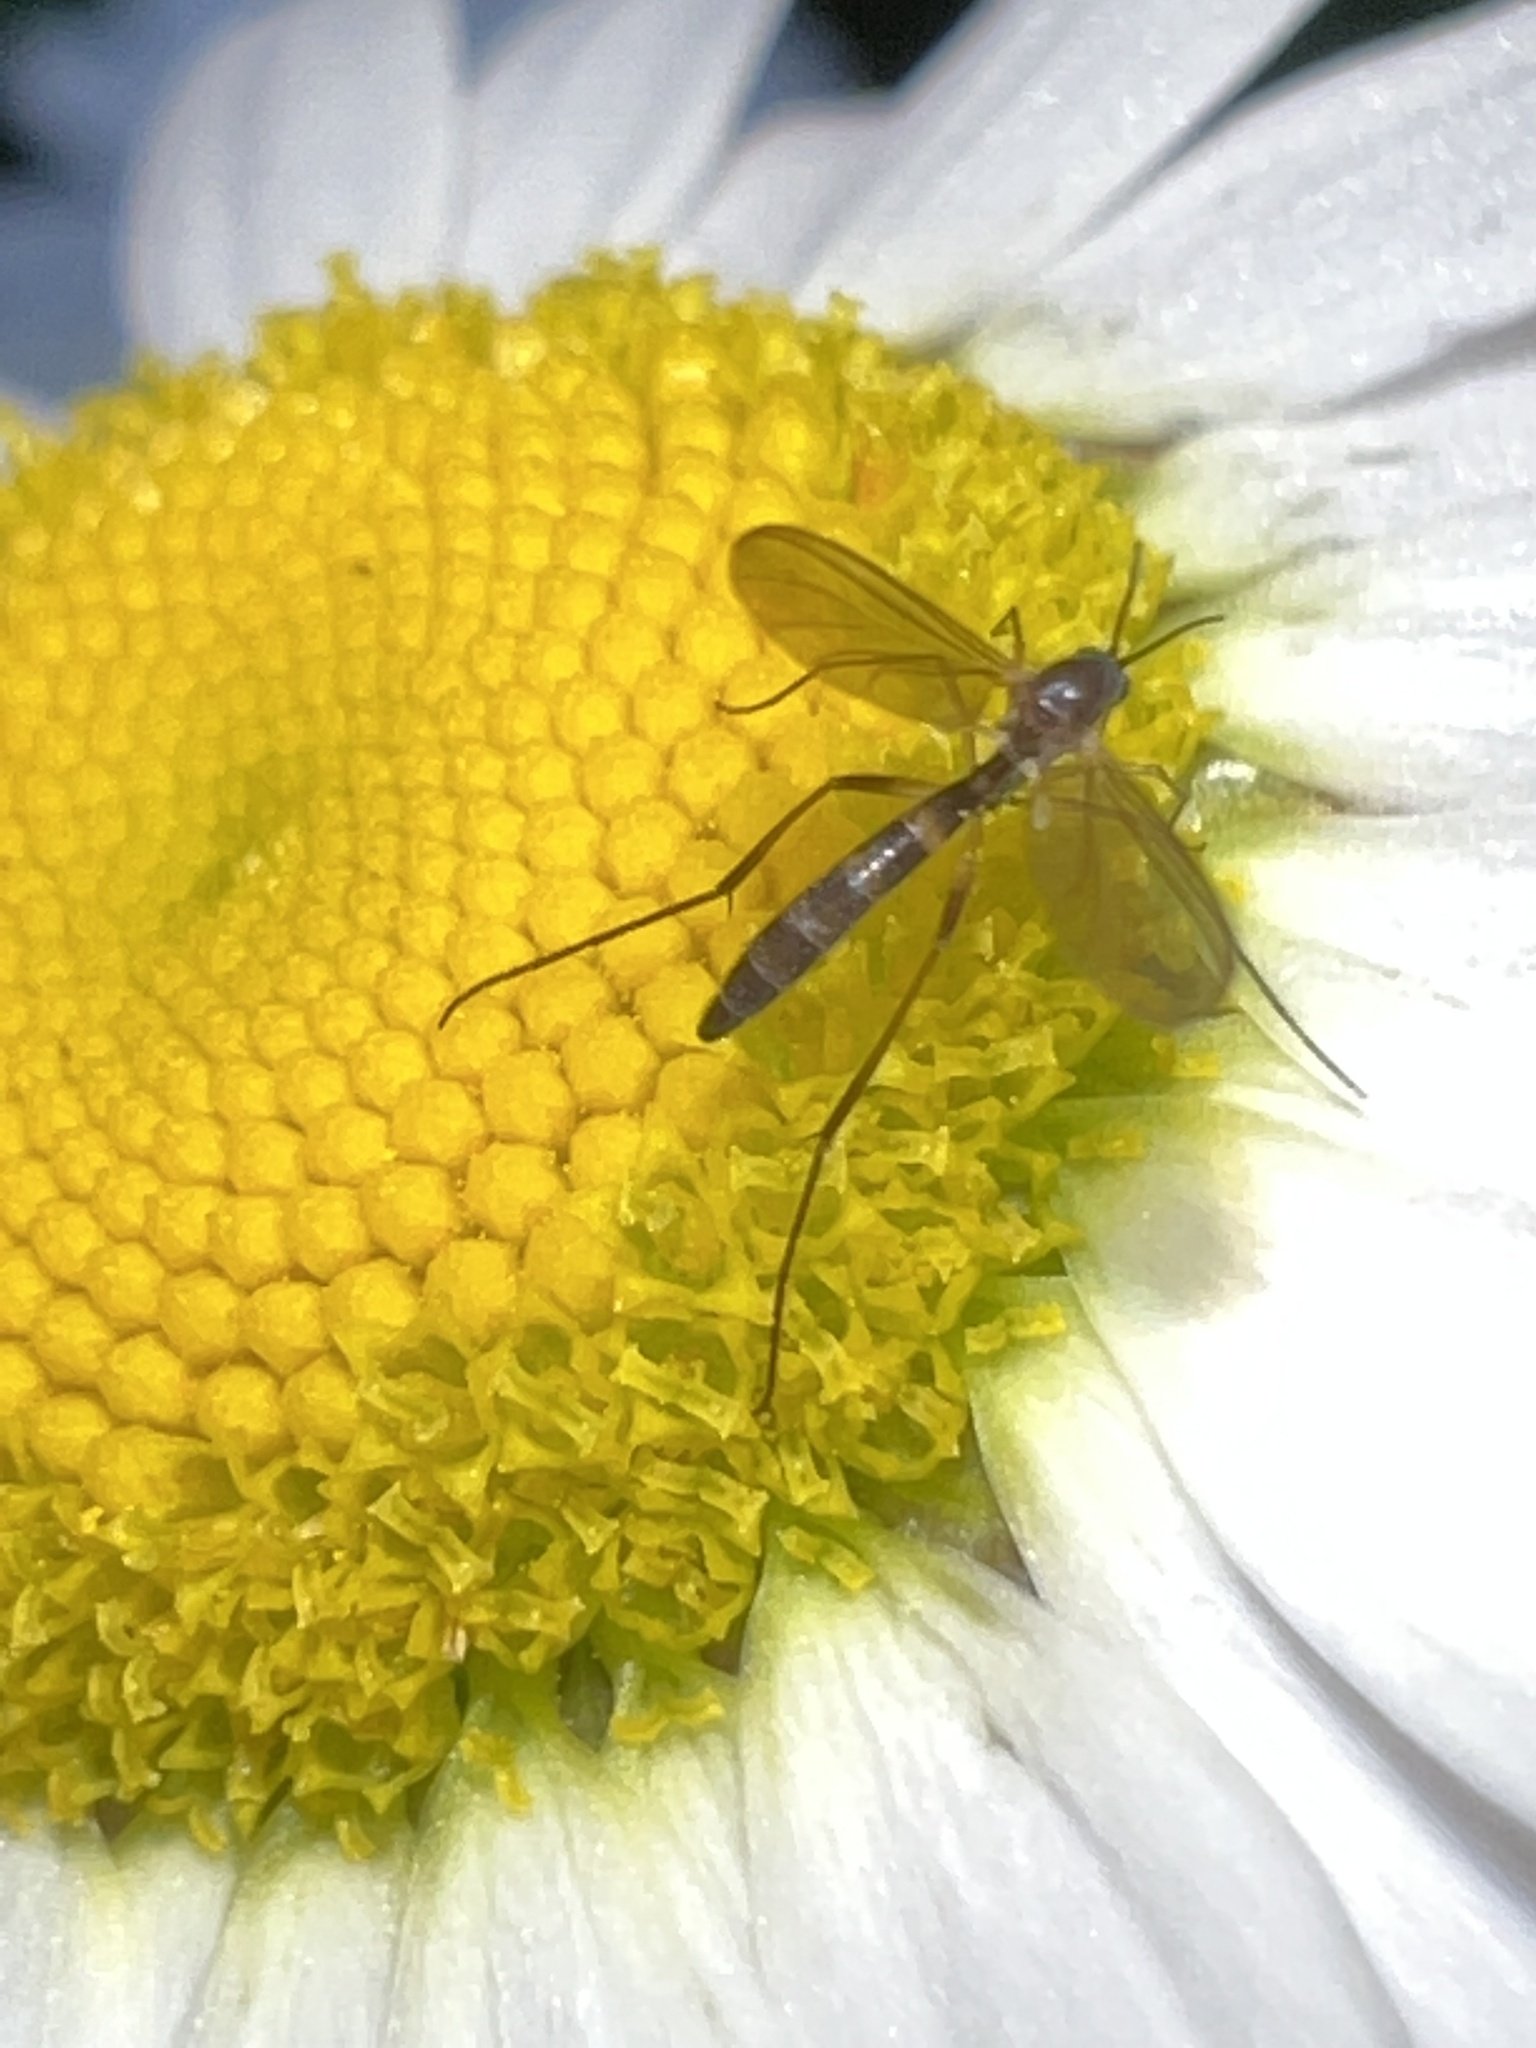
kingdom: Animalia
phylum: Arthropoda
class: Insecta
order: Diptera
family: Mycetophilidae
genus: Gnoriste
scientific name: Gnoriste megarrhina
